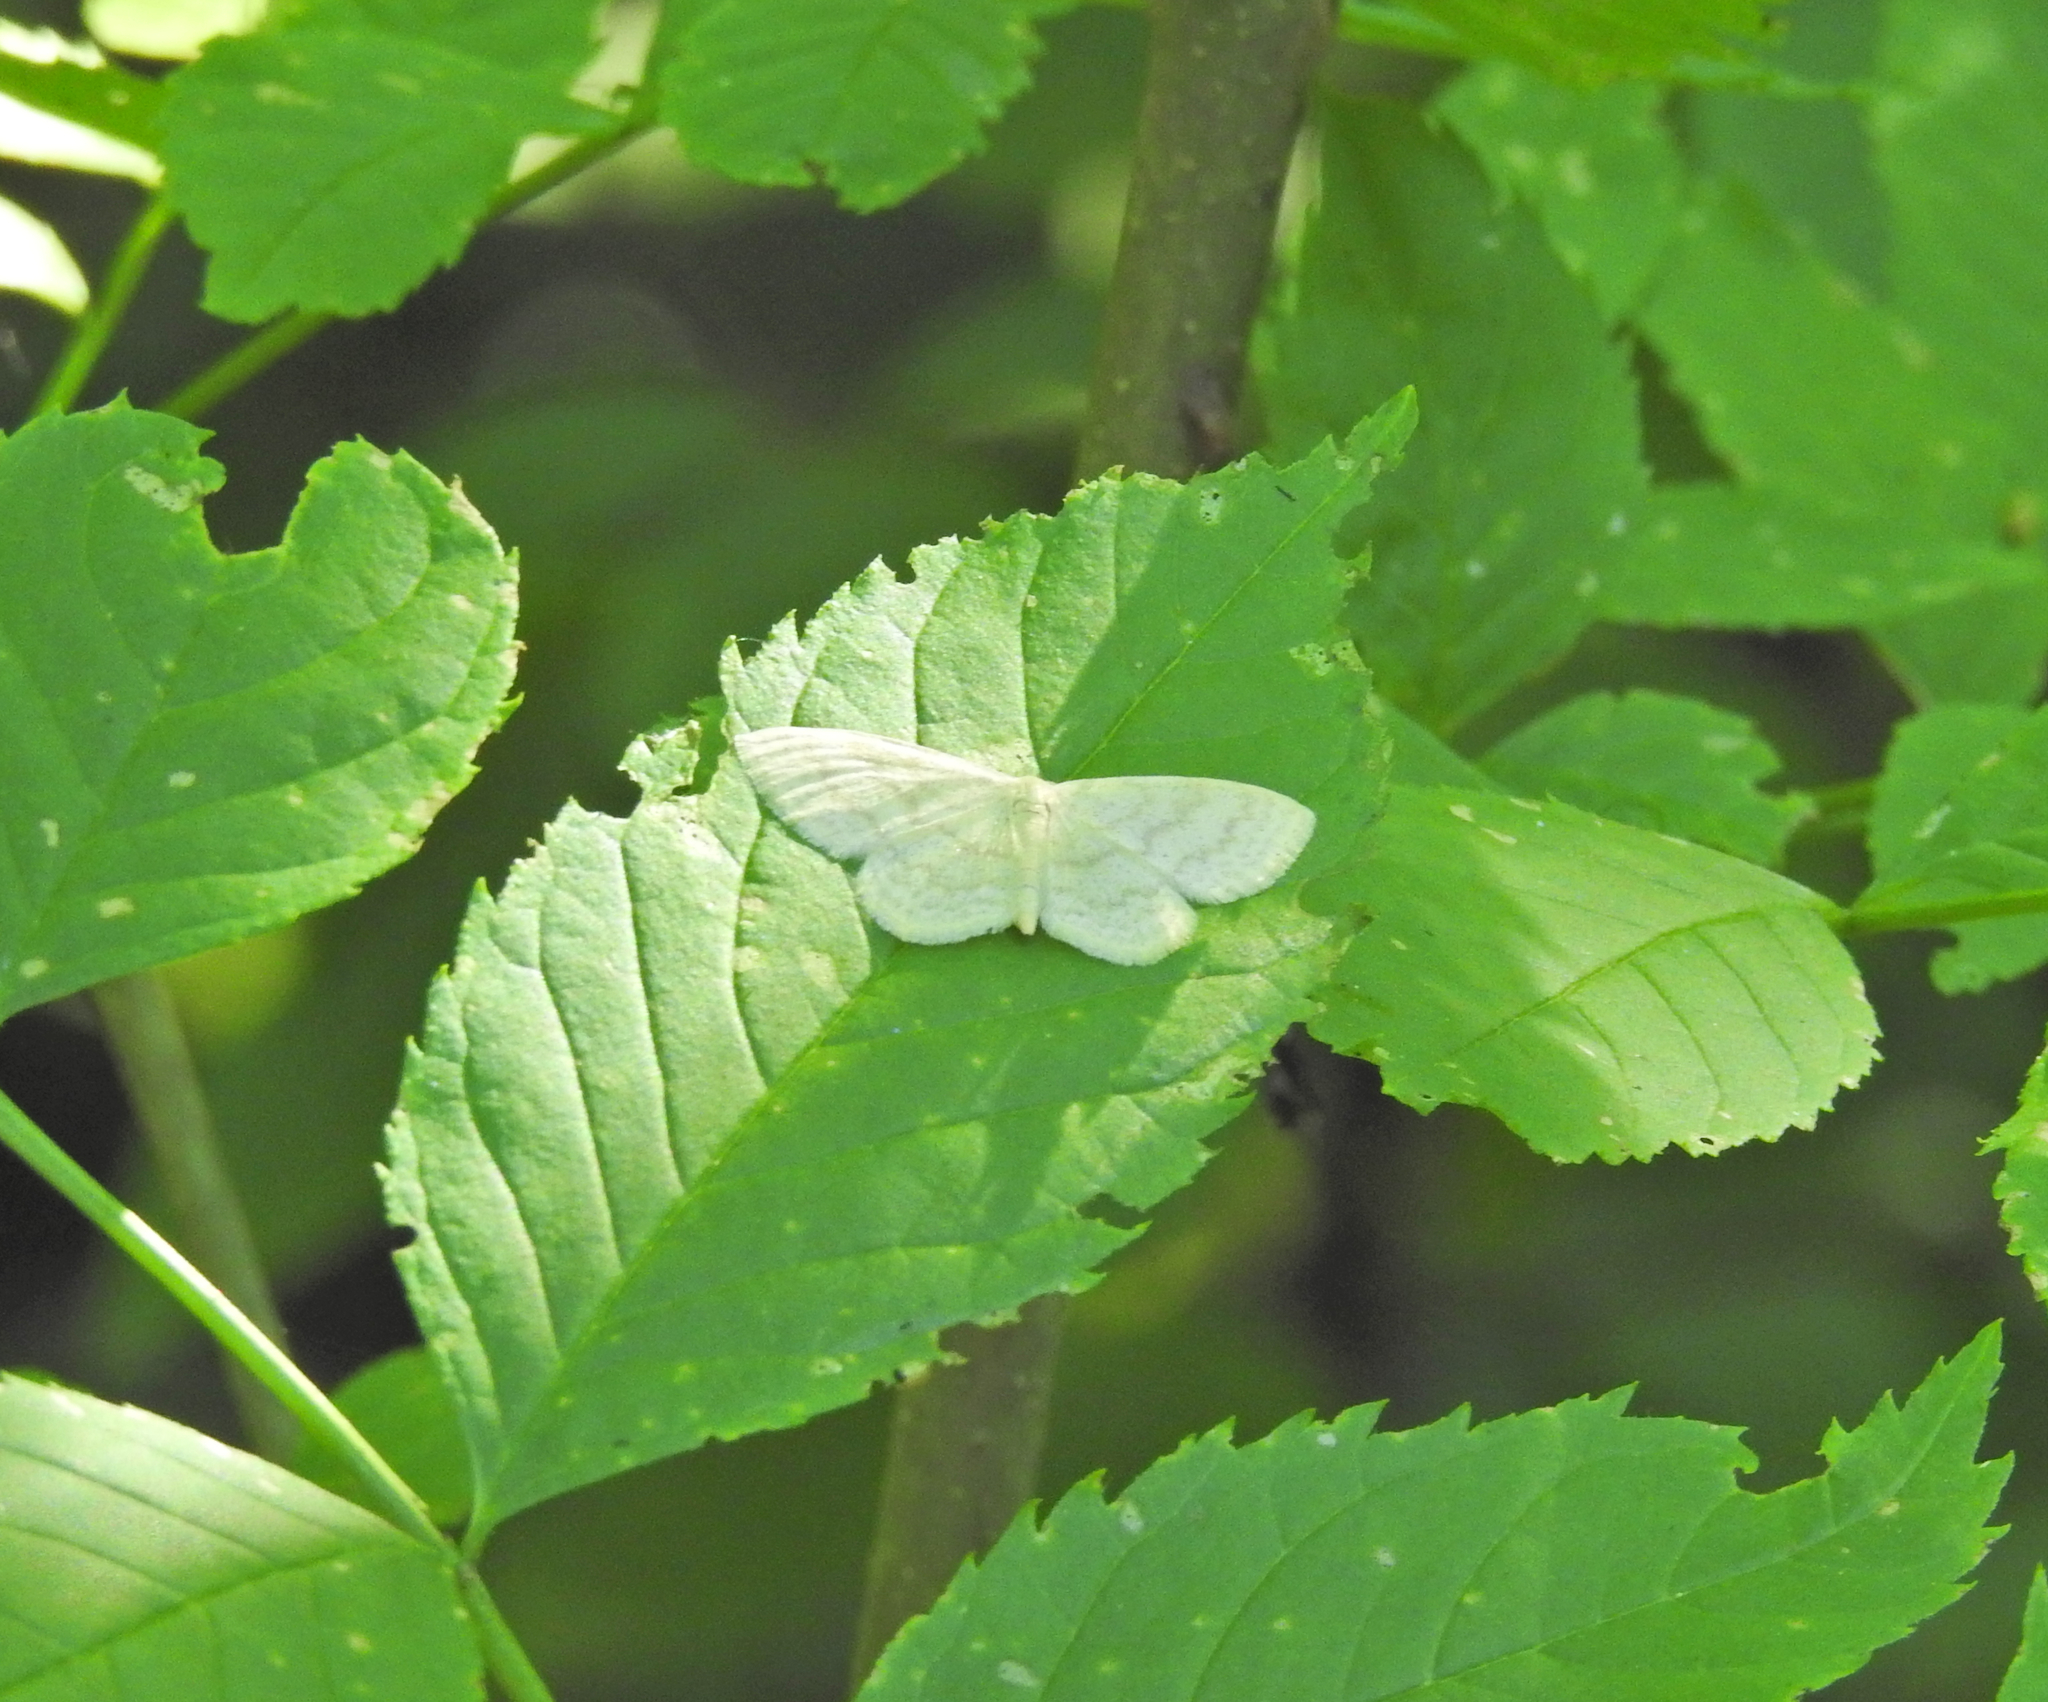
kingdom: Animalia
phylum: Arthropoda
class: Insecta
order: Lepidoptera
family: Geometridae
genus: Scopula
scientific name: Scopula floslactata
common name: Cream wave
